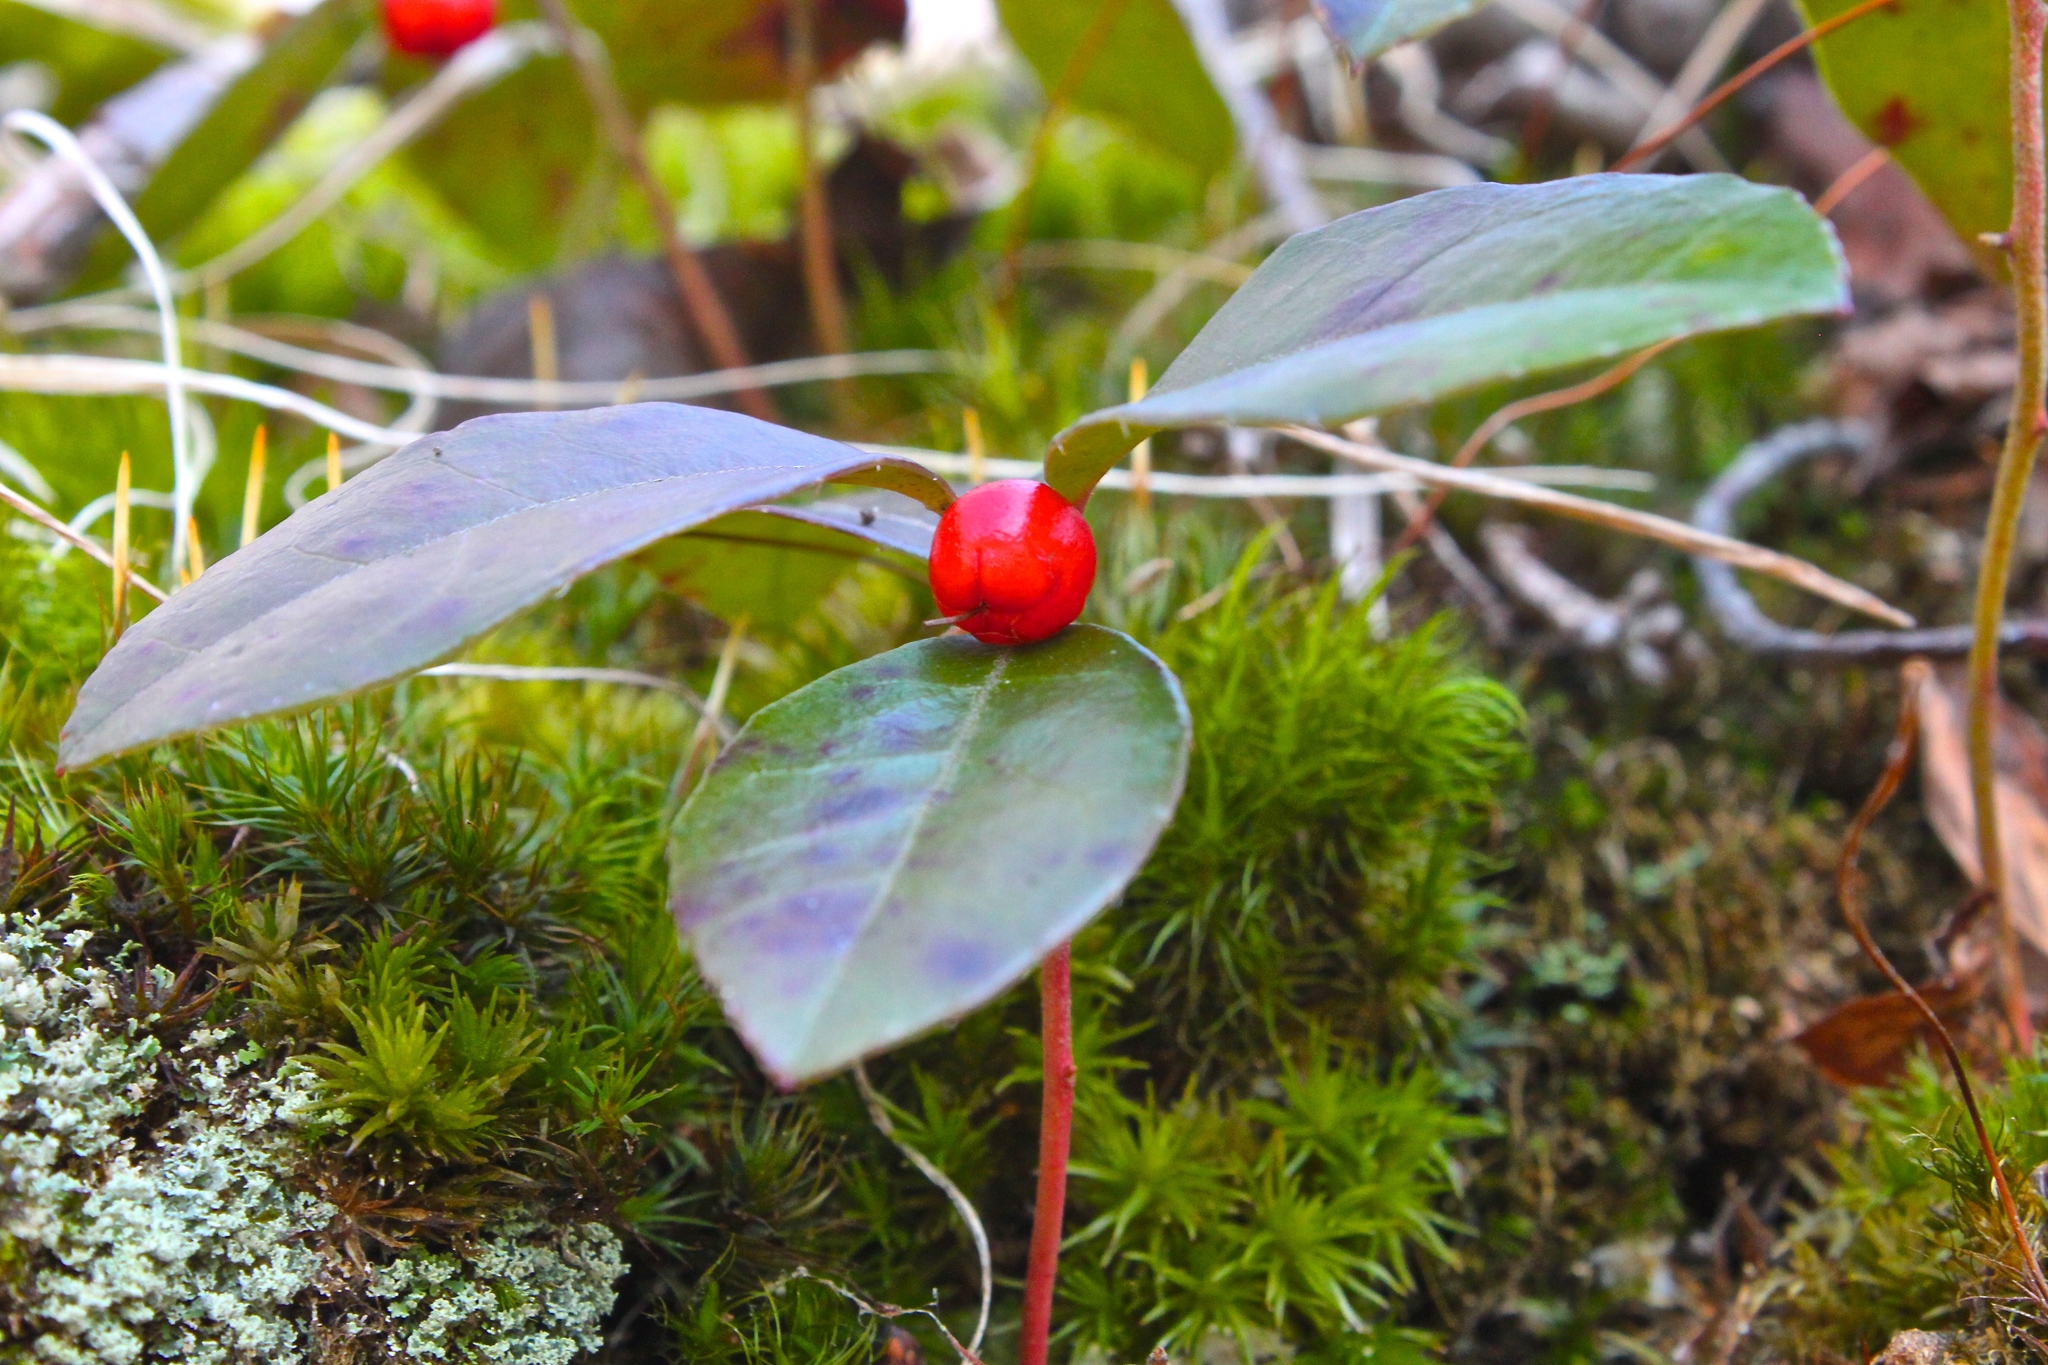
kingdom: Plantae
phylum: Tracheophyta
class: Magnoliopsida
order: Ericales
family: Ericaceae
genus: Gaultheria
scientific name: Gaultheria procumbens
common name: Checkerberry
